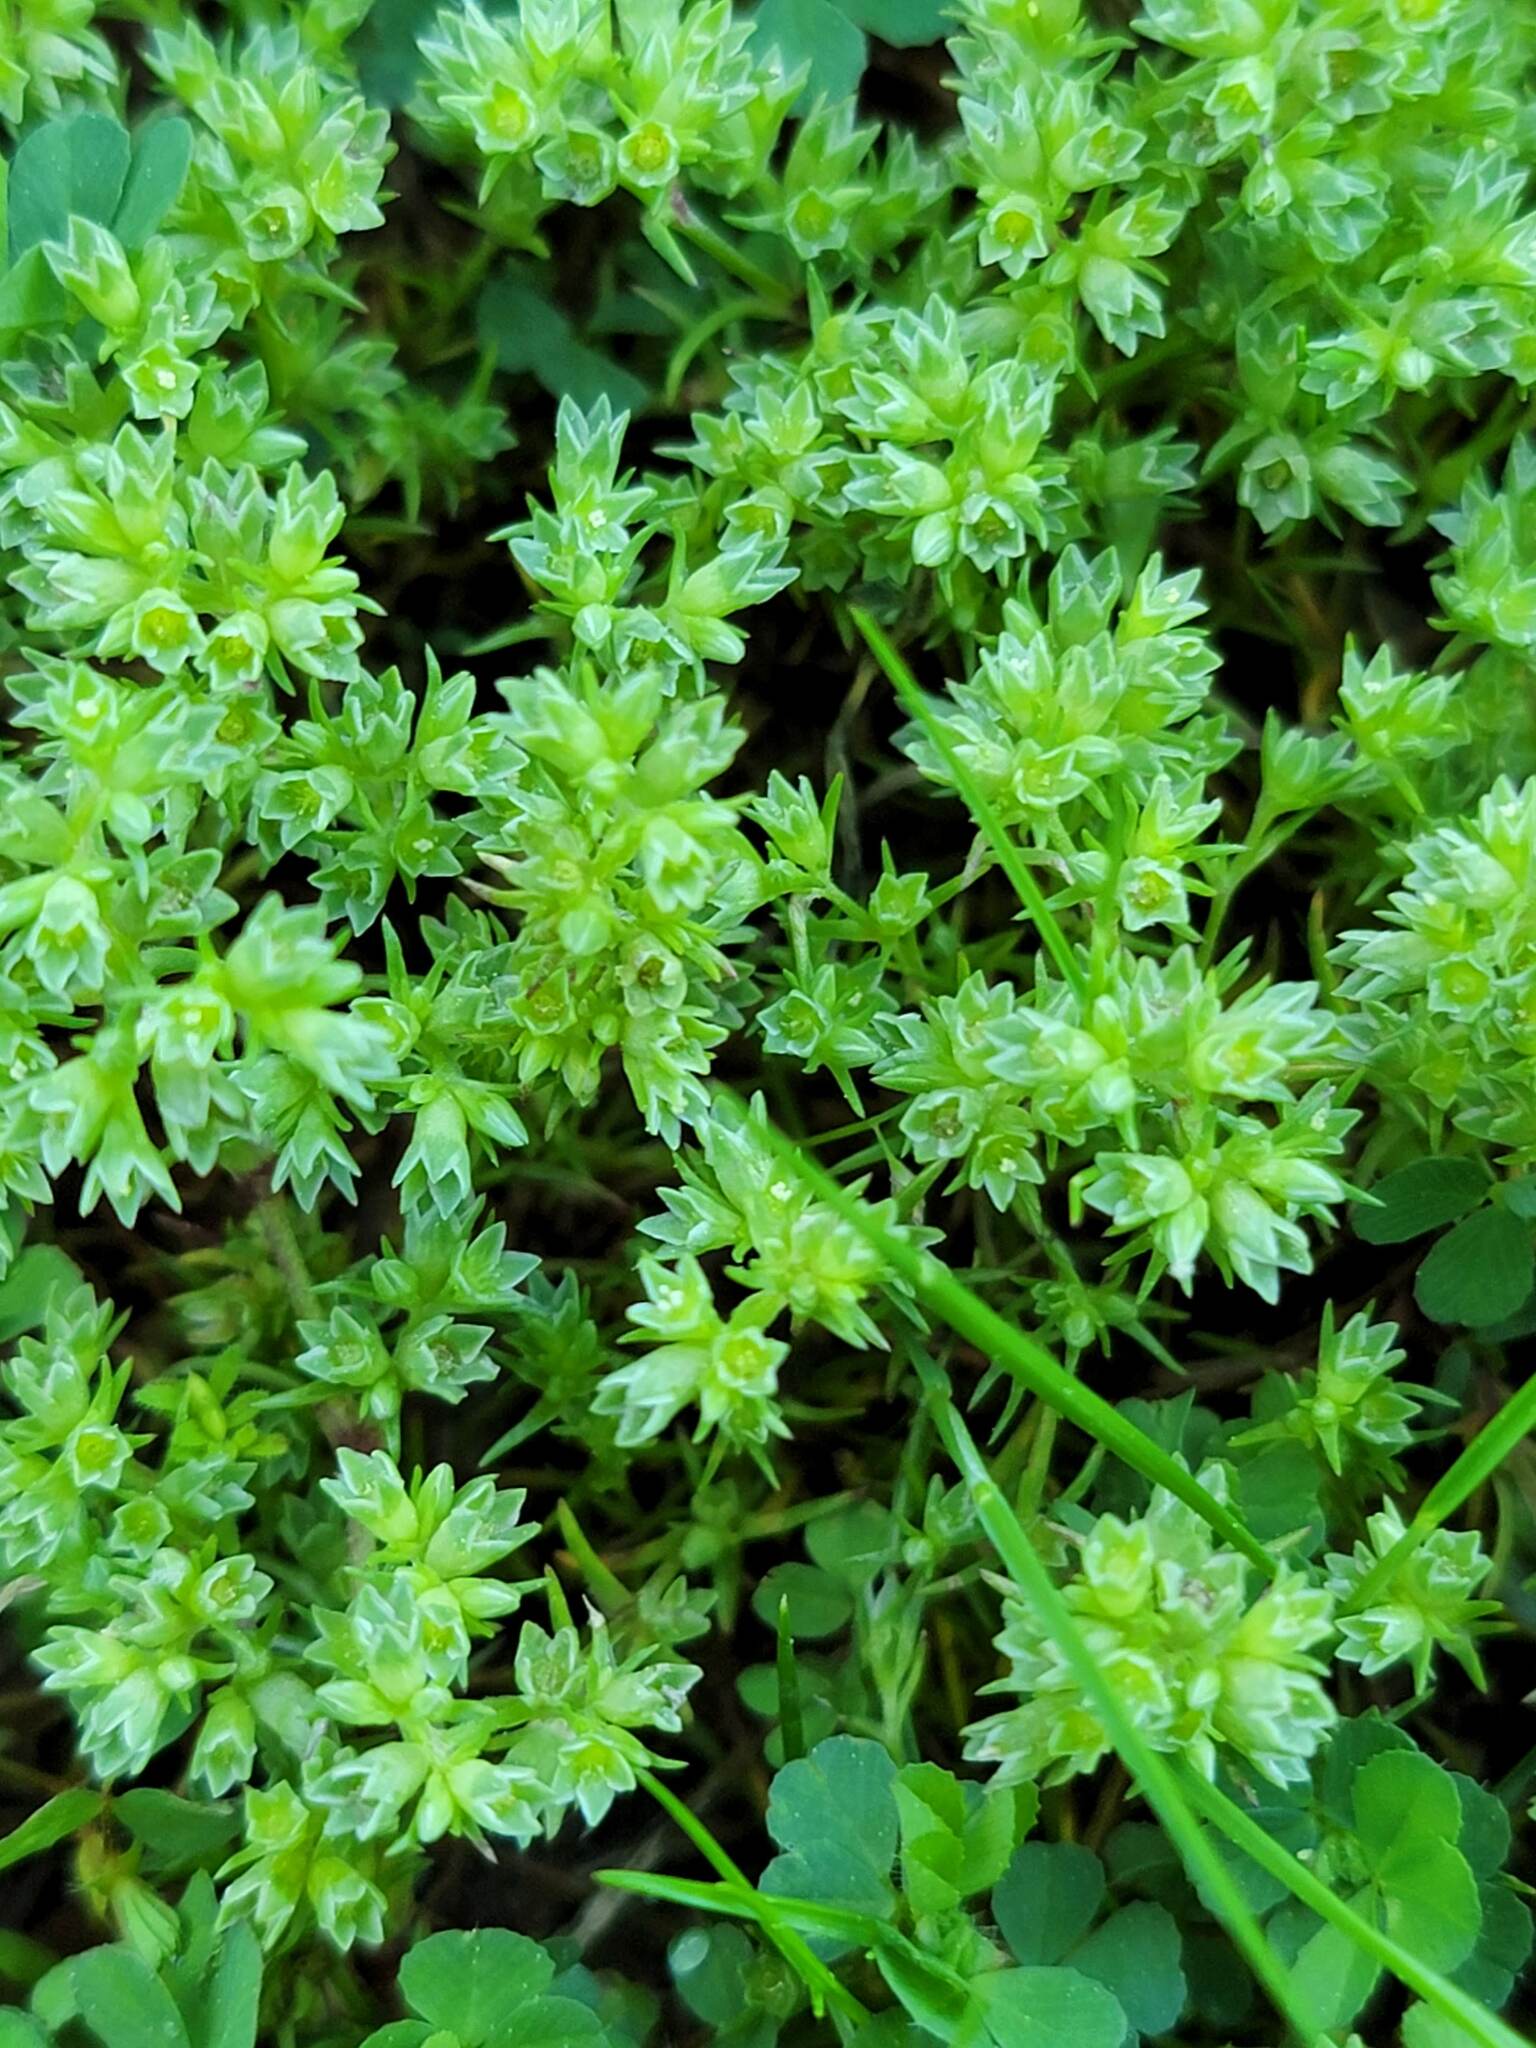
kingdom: Plantae
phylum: Tracheophyta
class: Magnoliopsida
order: Caryophyllales
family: Caryophyllaceae
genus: Scleranthus
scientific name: Scleranthus annuus
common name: Annual knawel
